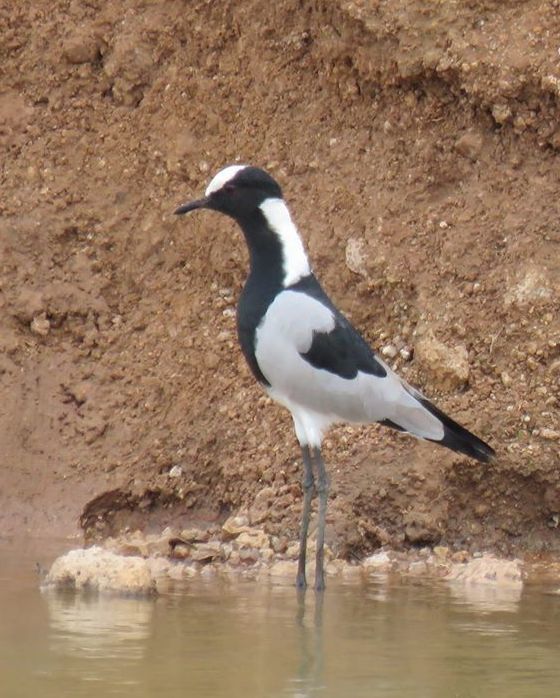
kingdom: Animalia
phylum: Chordata
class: Aves
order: Charadriiformes
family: Charadriidae
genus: Vanellus
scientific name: Vanellus armatus
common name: Blacksmith lapwing
